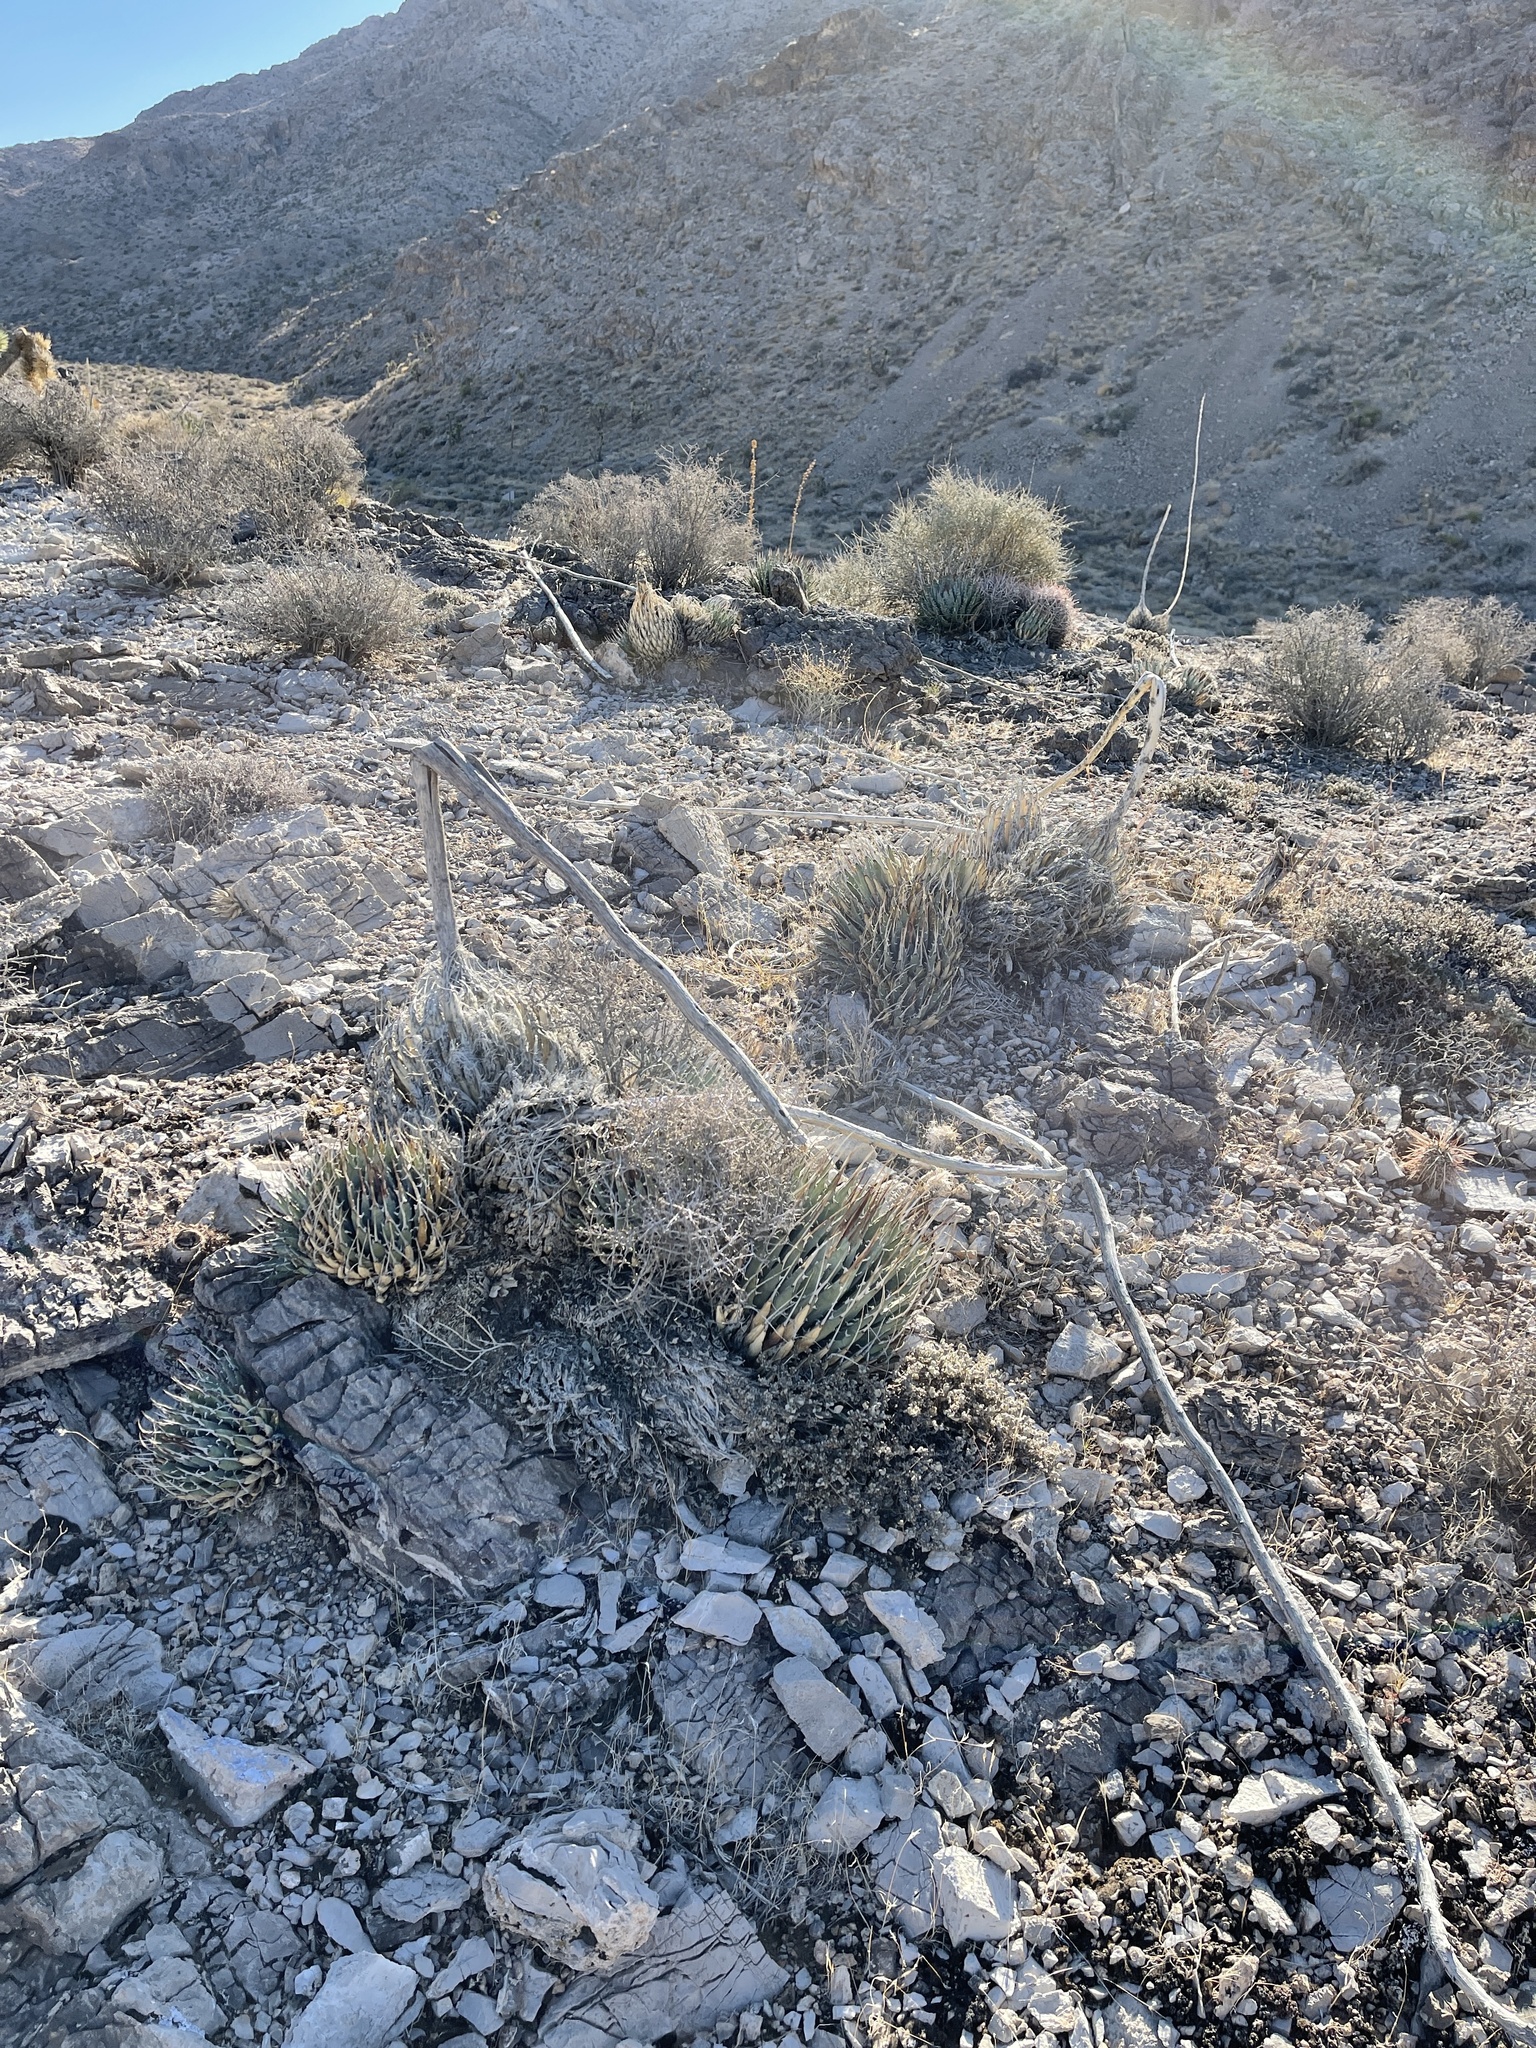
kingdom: Plantae
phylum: Tracheophyta
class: Liliopsida
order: Asparagales
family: Asparagaceae
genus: Agave
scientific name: Agave utahensis
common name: Utah agave
